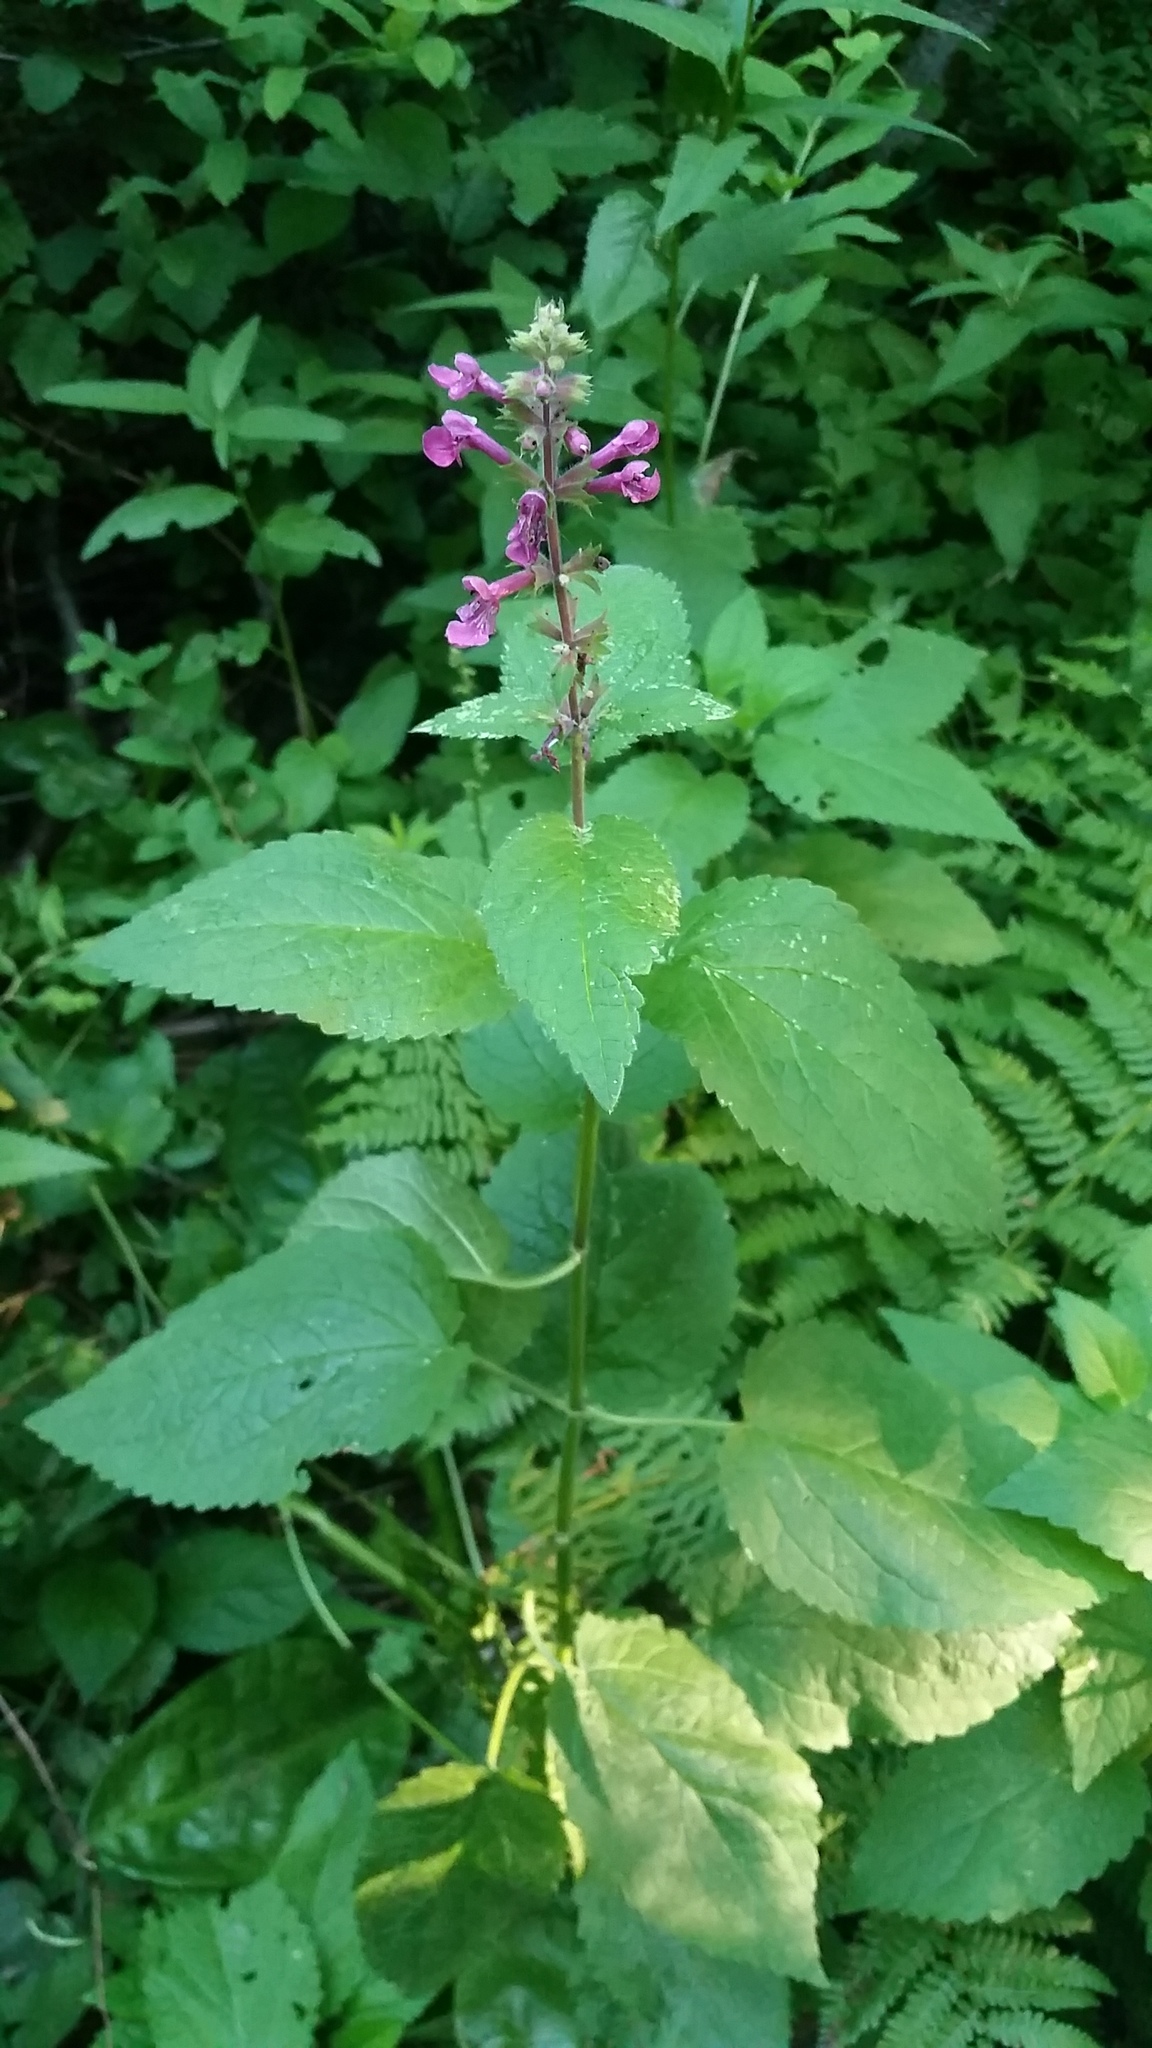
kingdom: Plantae
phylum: Tracheophyta
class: Magnoliopsida
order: Lamiales
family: Lamiaceae
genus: Stachys
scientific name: Stachys chamissonis
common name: Coastal hedge-nettle
